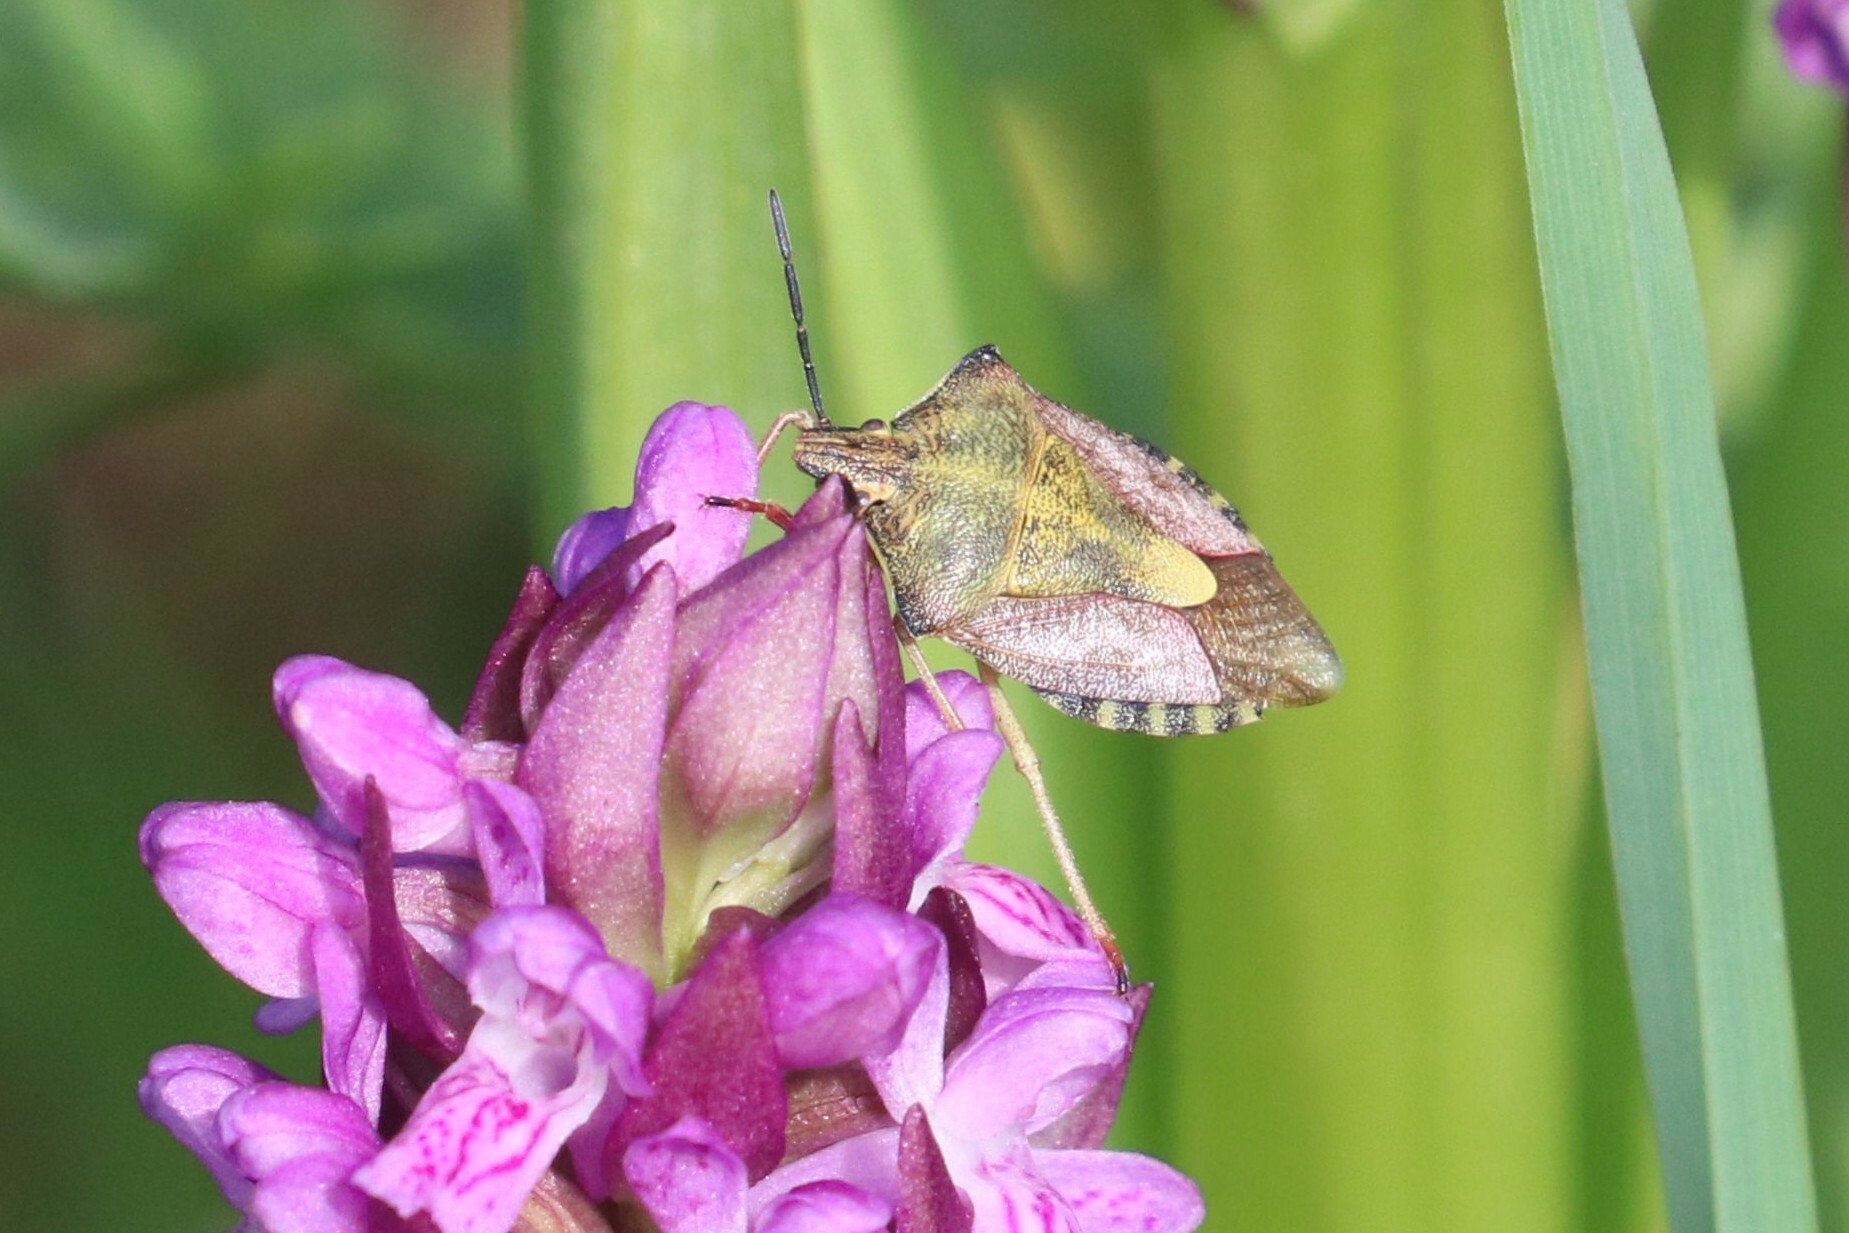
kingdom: Animalia
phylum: Arthropoda
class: Insecta
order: Hemiptera
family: Pentatomidae
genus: Carpocoris
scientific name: Carpocoris purpureipennis
